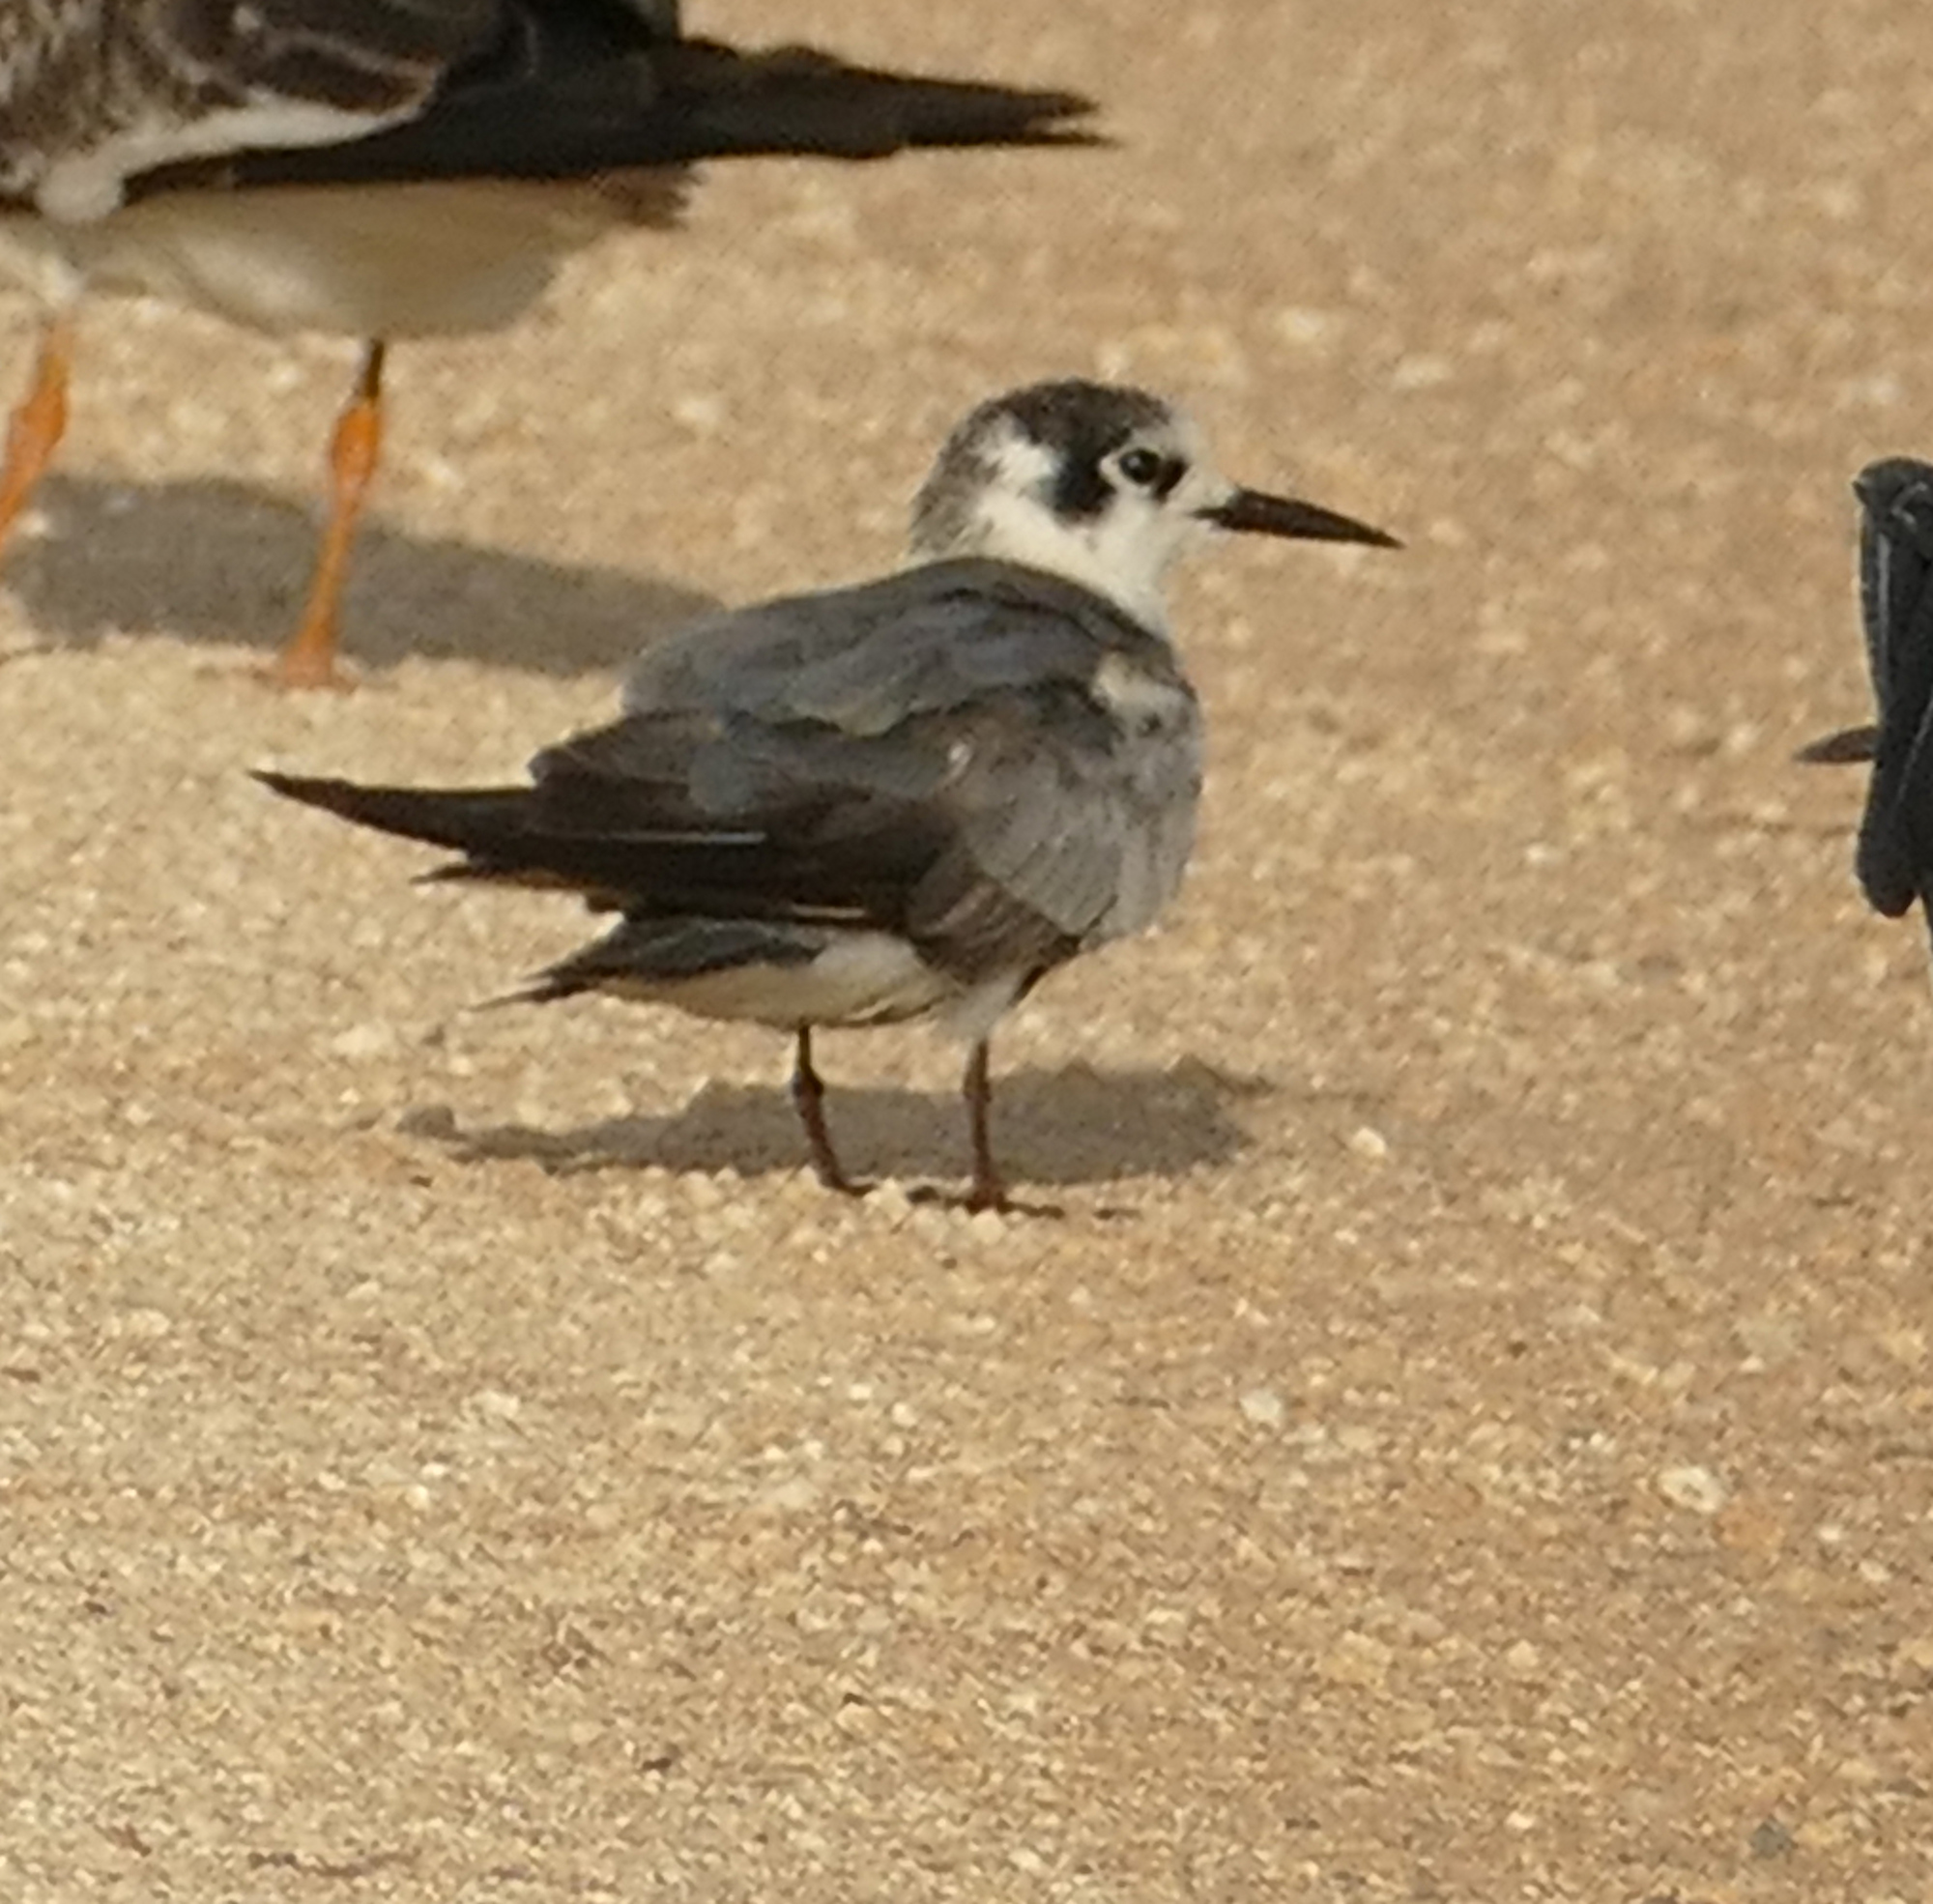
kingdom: Animalia
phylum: Chordata
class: Aves
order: Charadriiformes
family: Laridae
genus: Chlidonias
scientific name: Chlidonias niger
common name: Black tern
